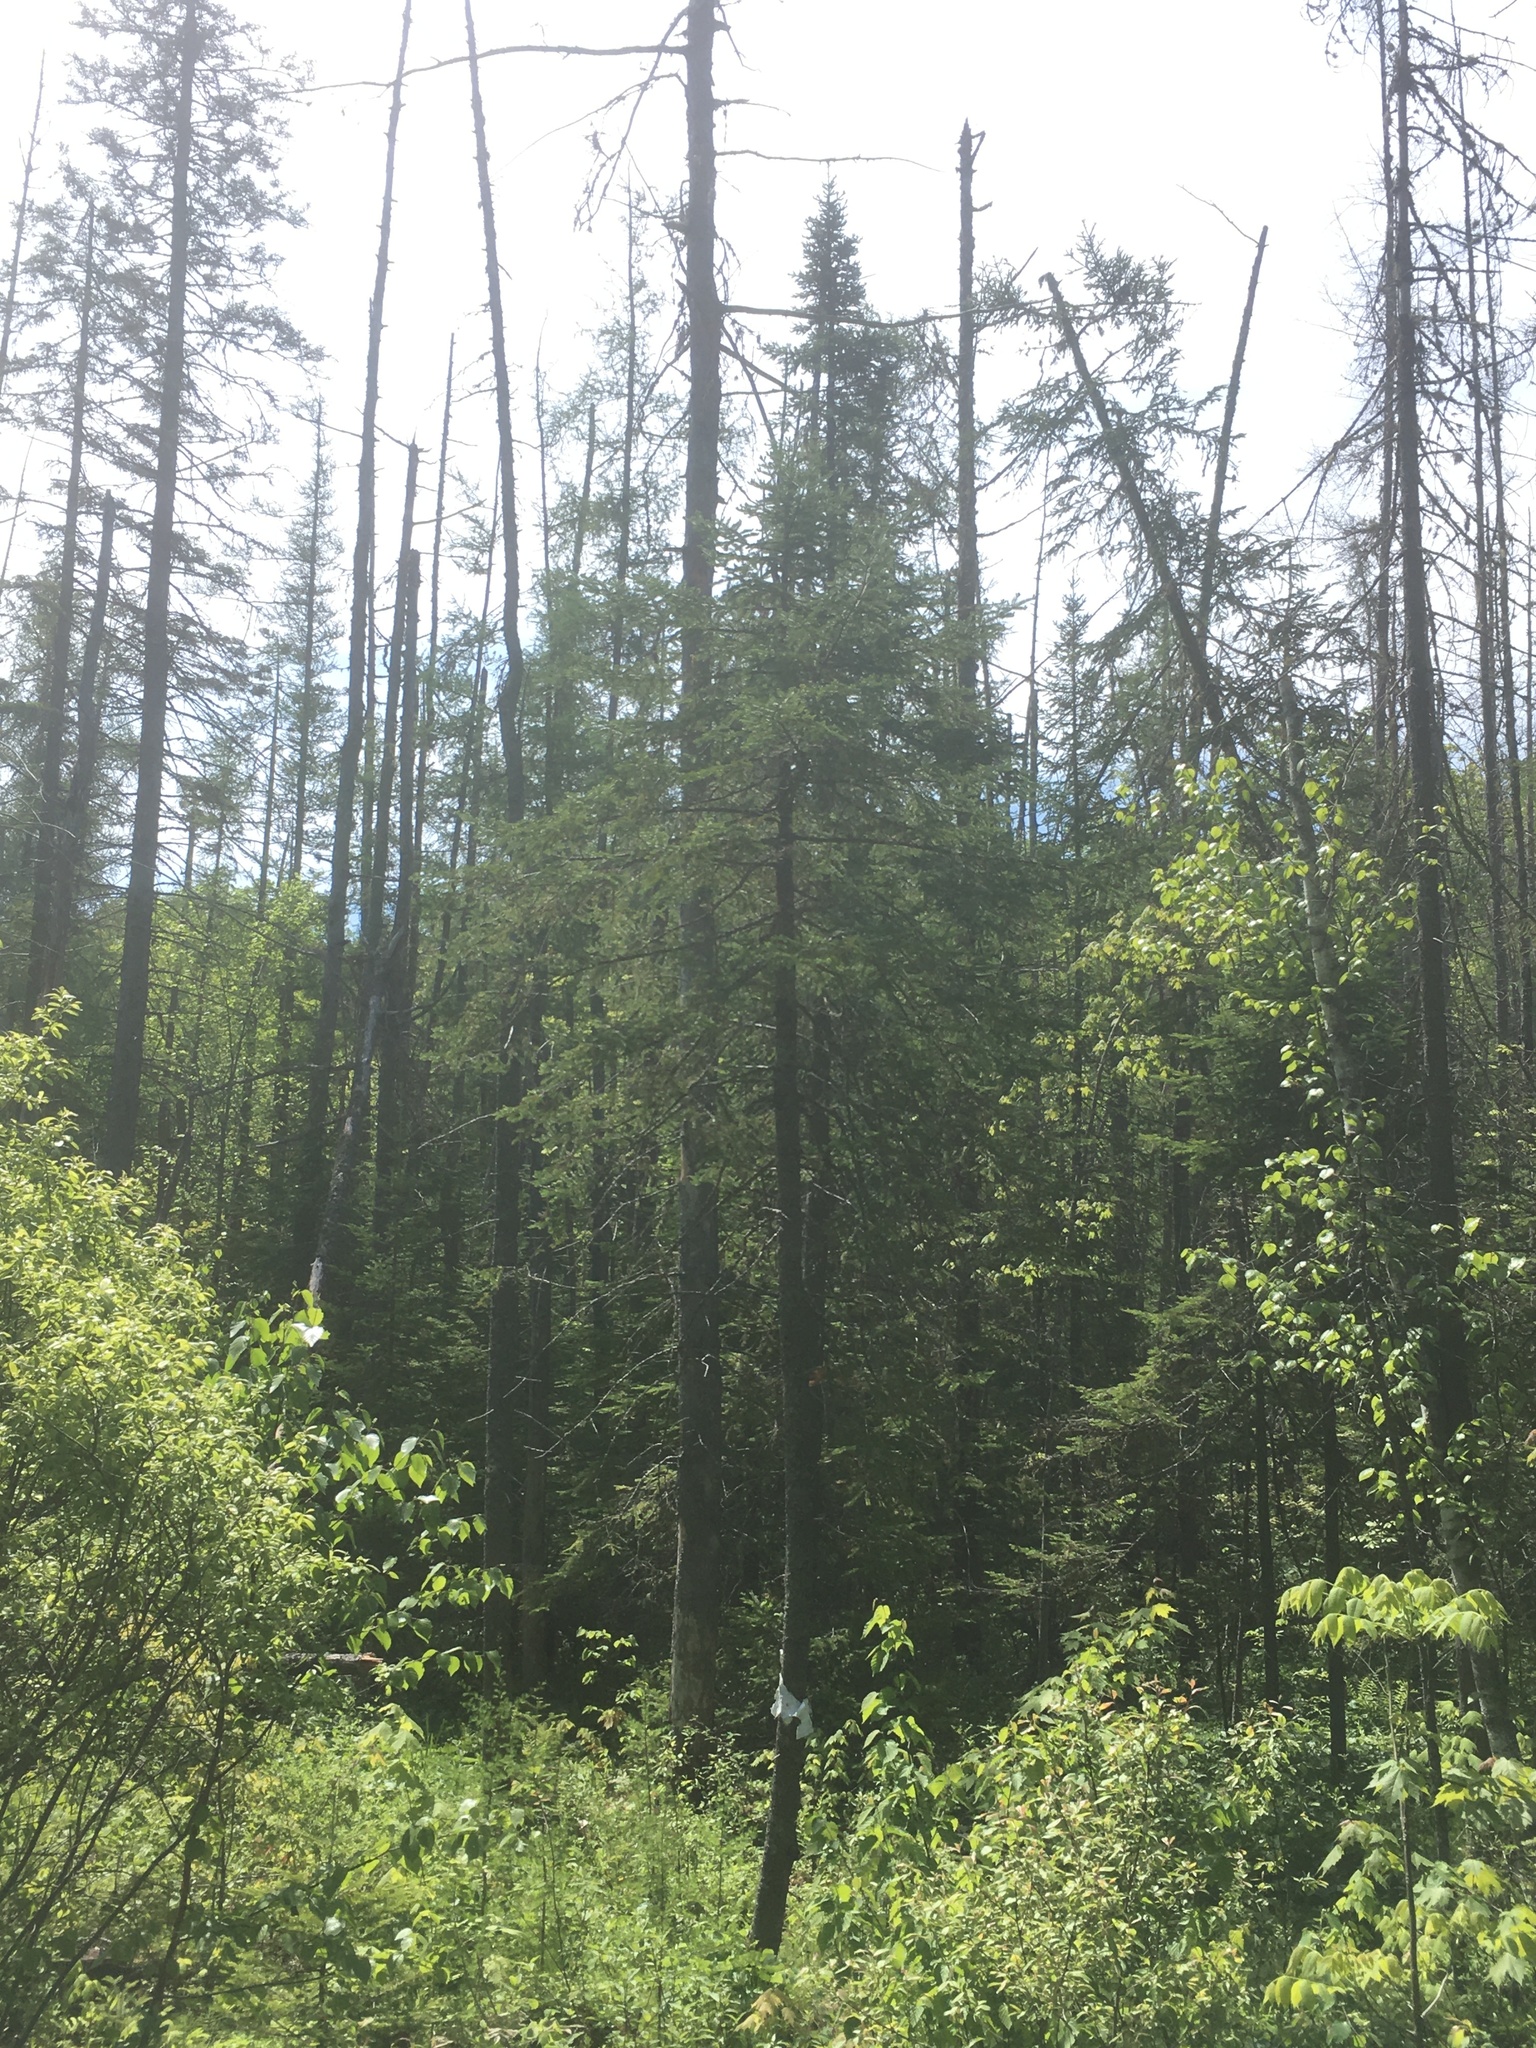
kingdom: Plantae
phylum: Tracheophyta
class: Pinopsida
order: Pinales
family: Pinaceae
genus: Abies
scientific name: Abies balsamea
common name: Balsam fir
